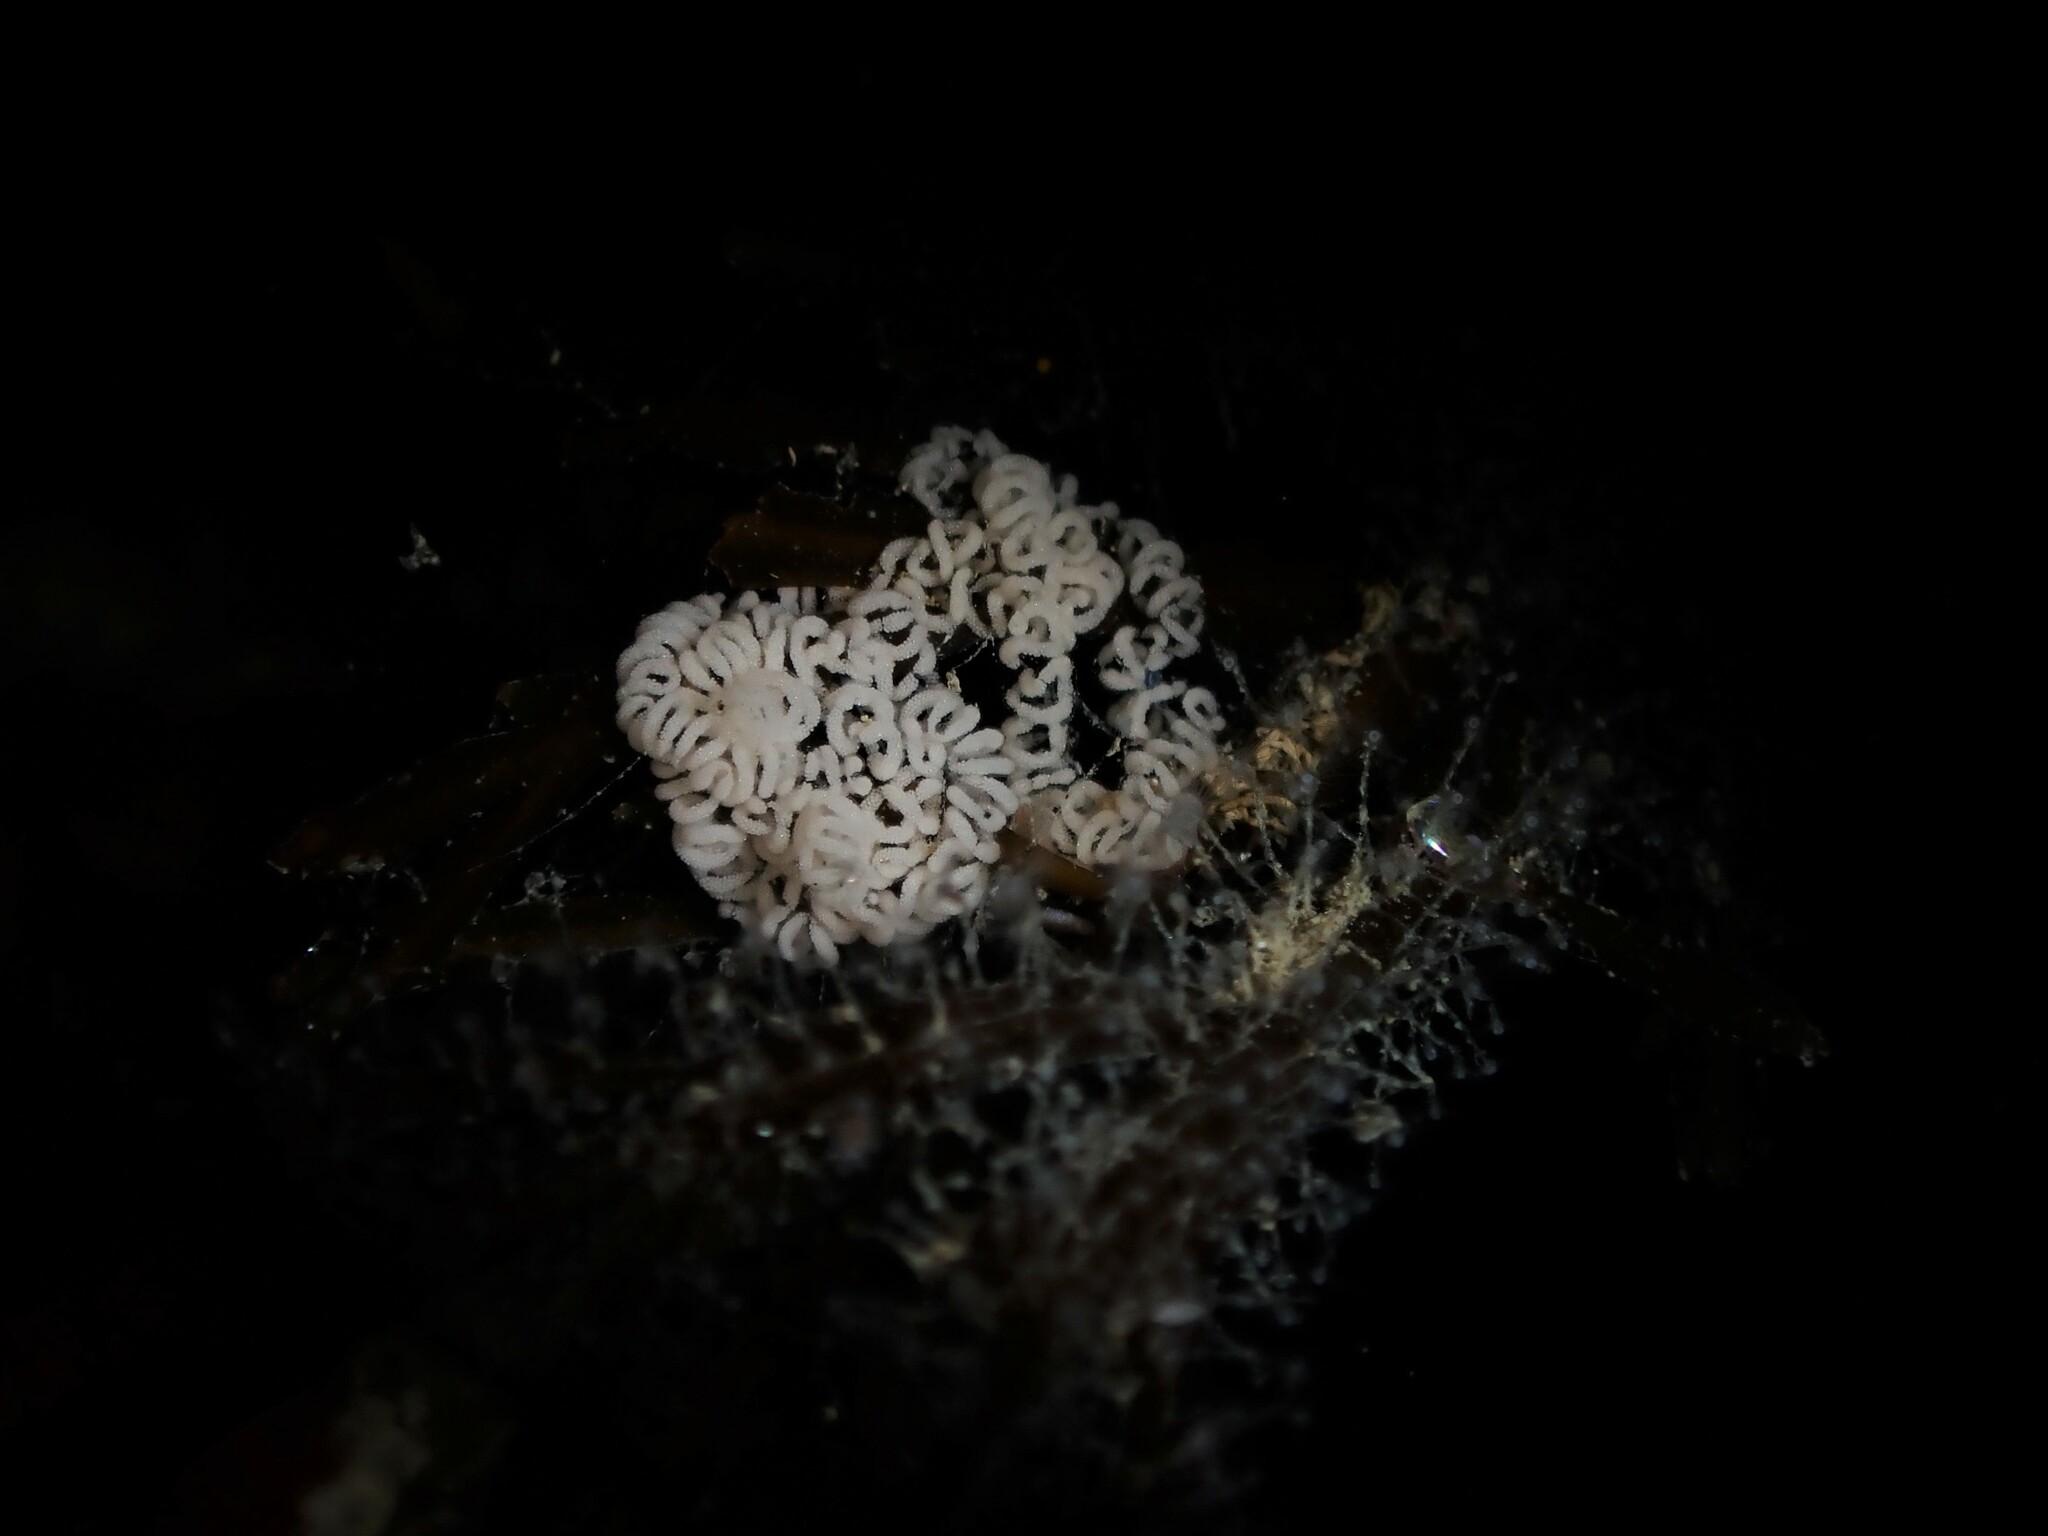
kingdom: Animalia
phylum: Mollusca
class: Gastropoda
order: Nudibranchia
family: Janolidae
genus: Janolus
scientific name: Janolus eximius
